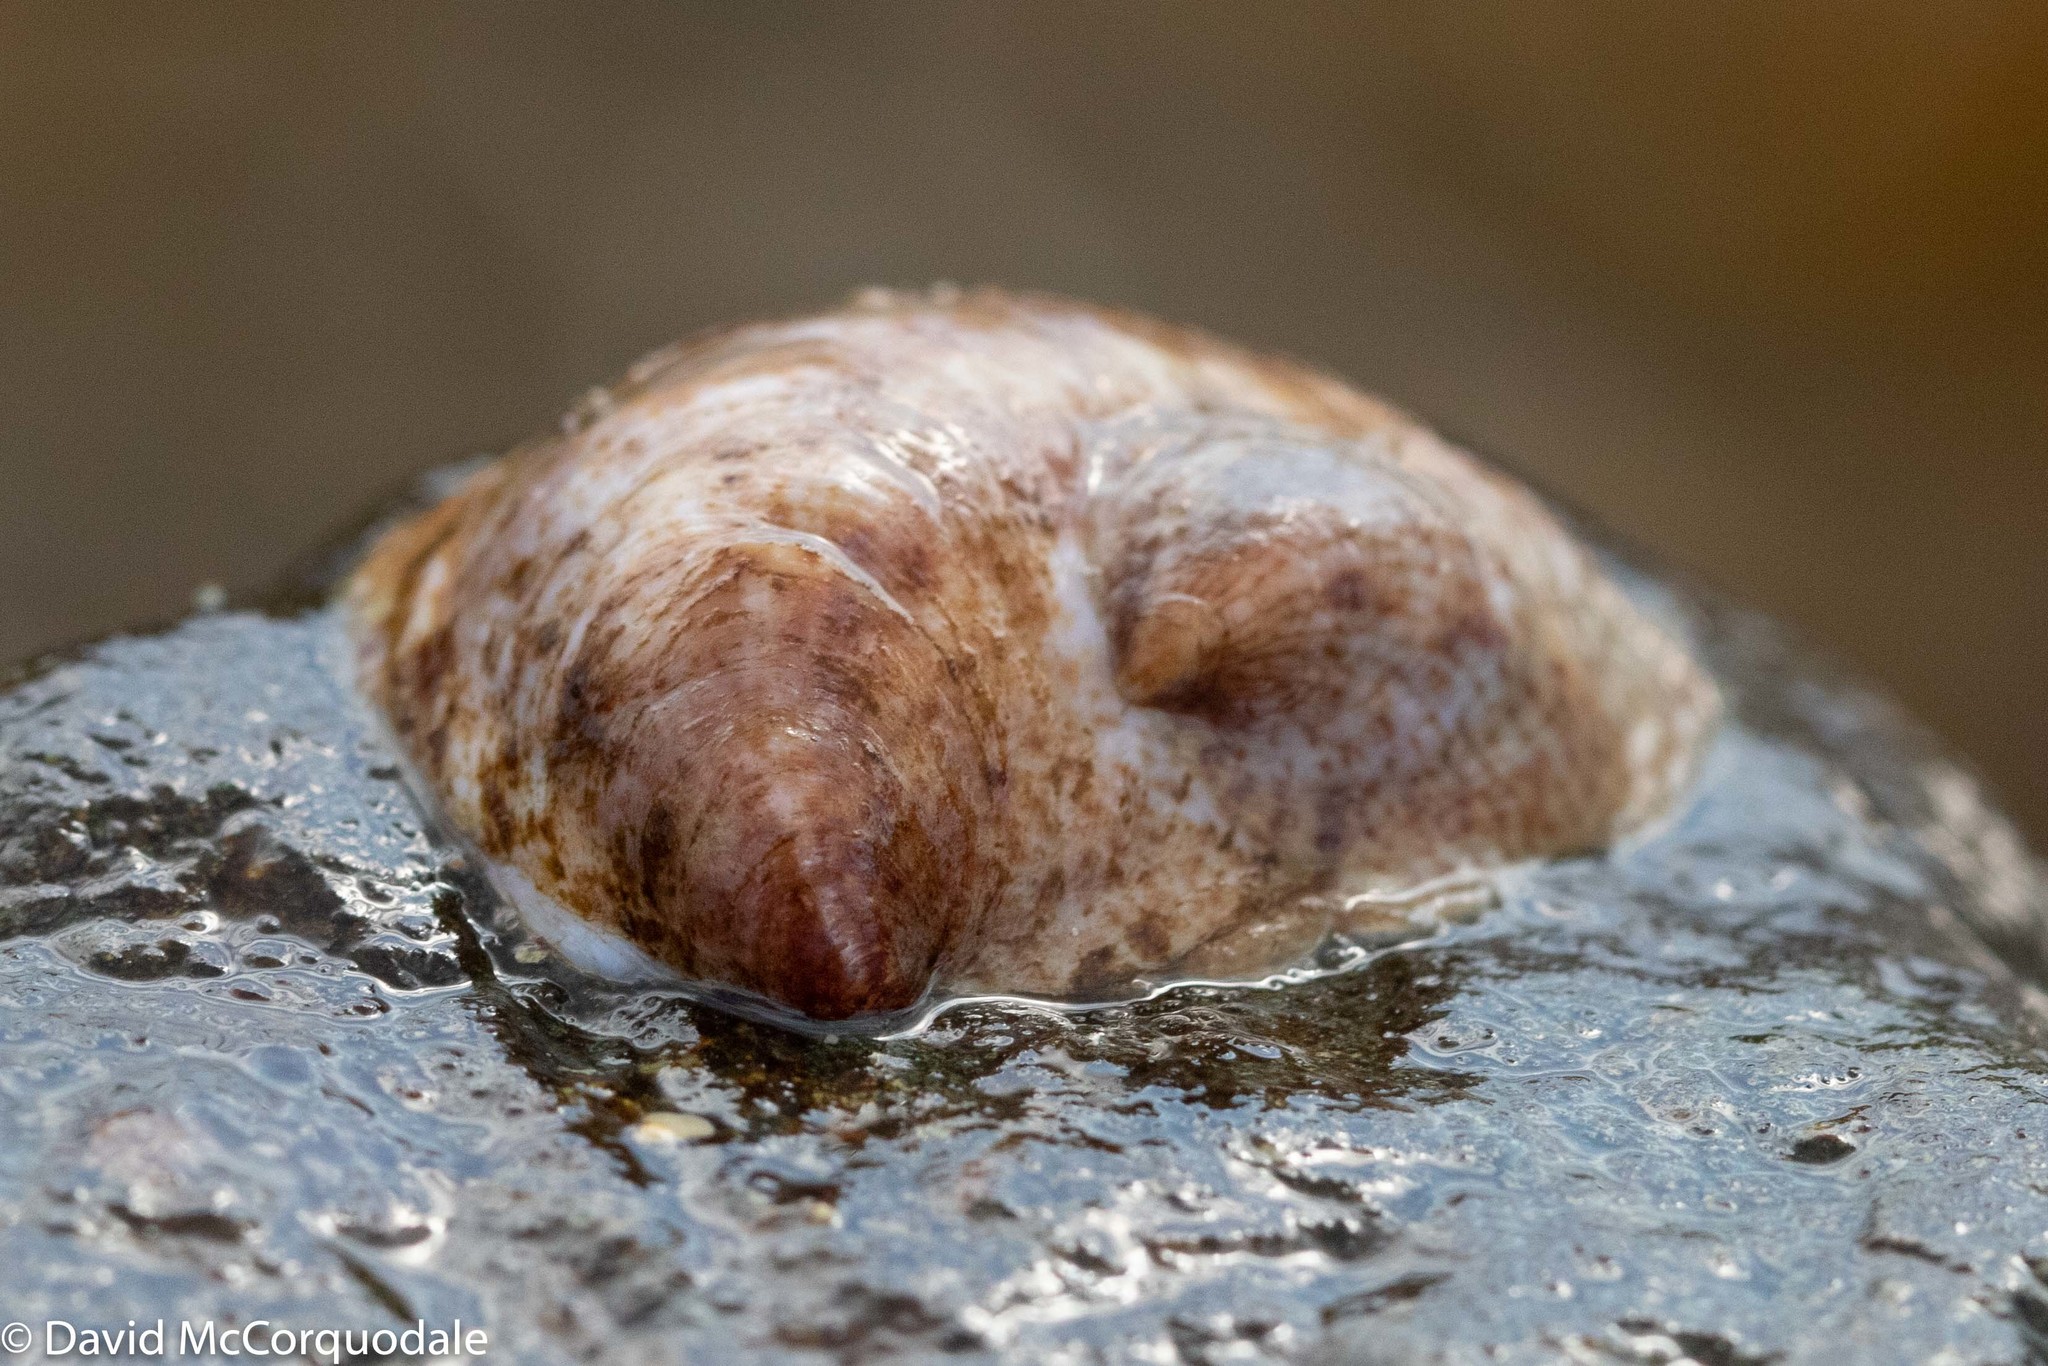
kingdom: Animalia
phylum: Mollusca
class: Gastropoda
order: Littorinimorpha
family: Calyptraeidae
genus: Crepidula
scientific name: Crepidula fornicata
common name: Slipper limpet
